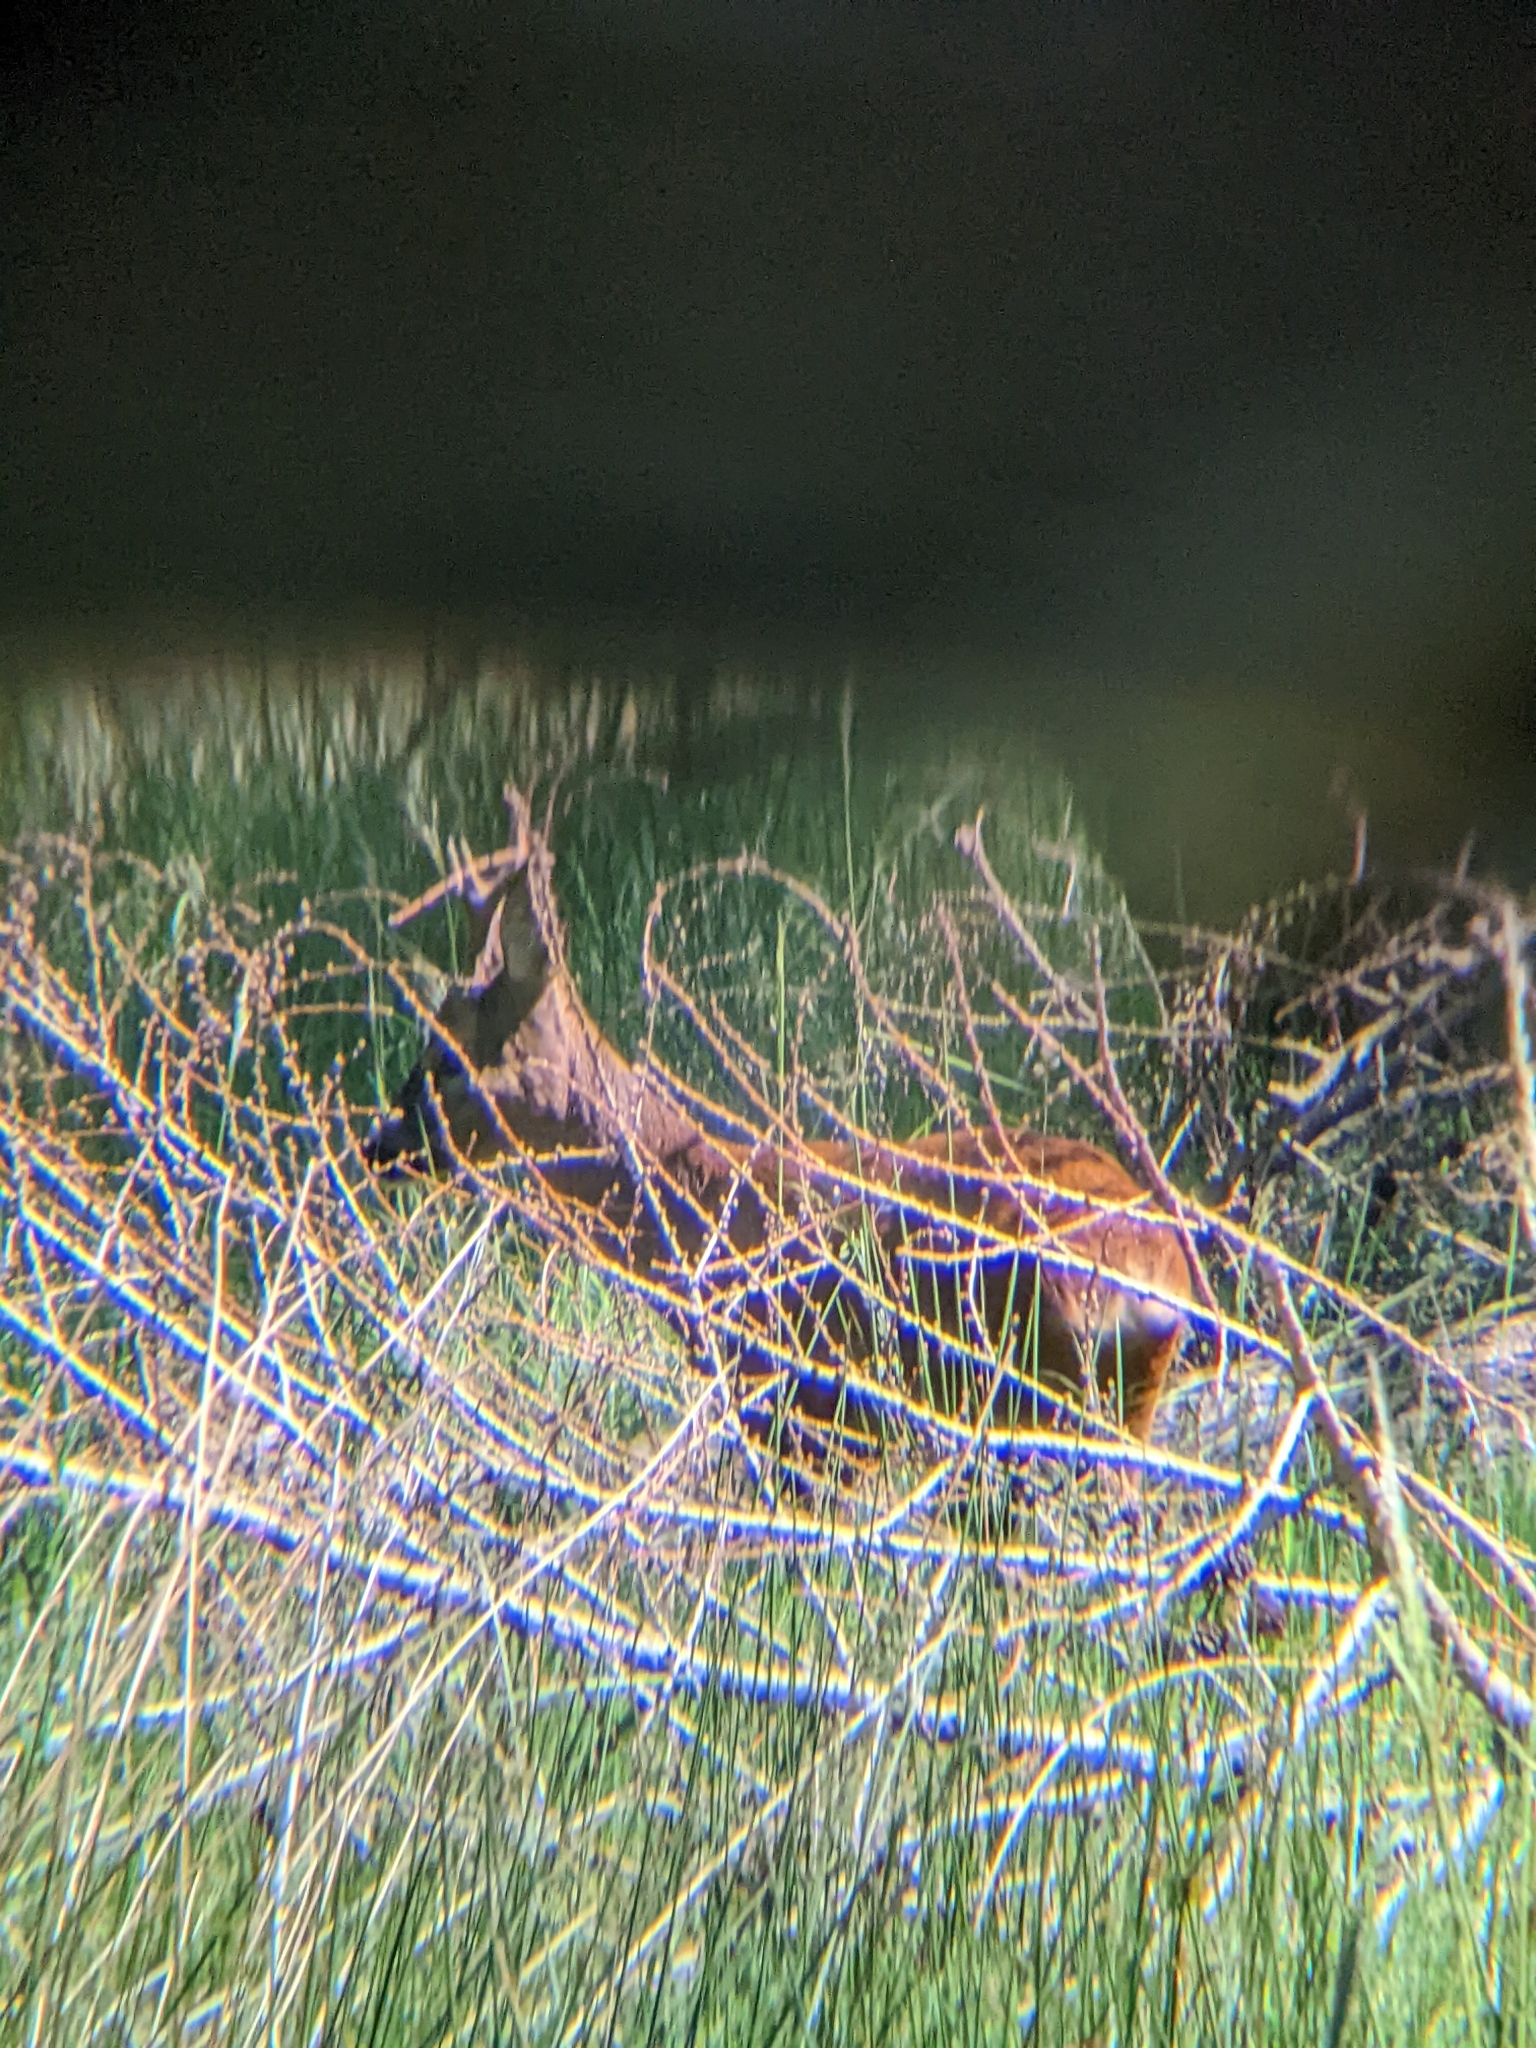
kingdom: Animalia
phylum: Chordata
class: Mammalia
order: Artiodactyla
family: Cervidae
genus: Capreolus
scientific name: Capreolus capreolus
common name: Western roe deer
